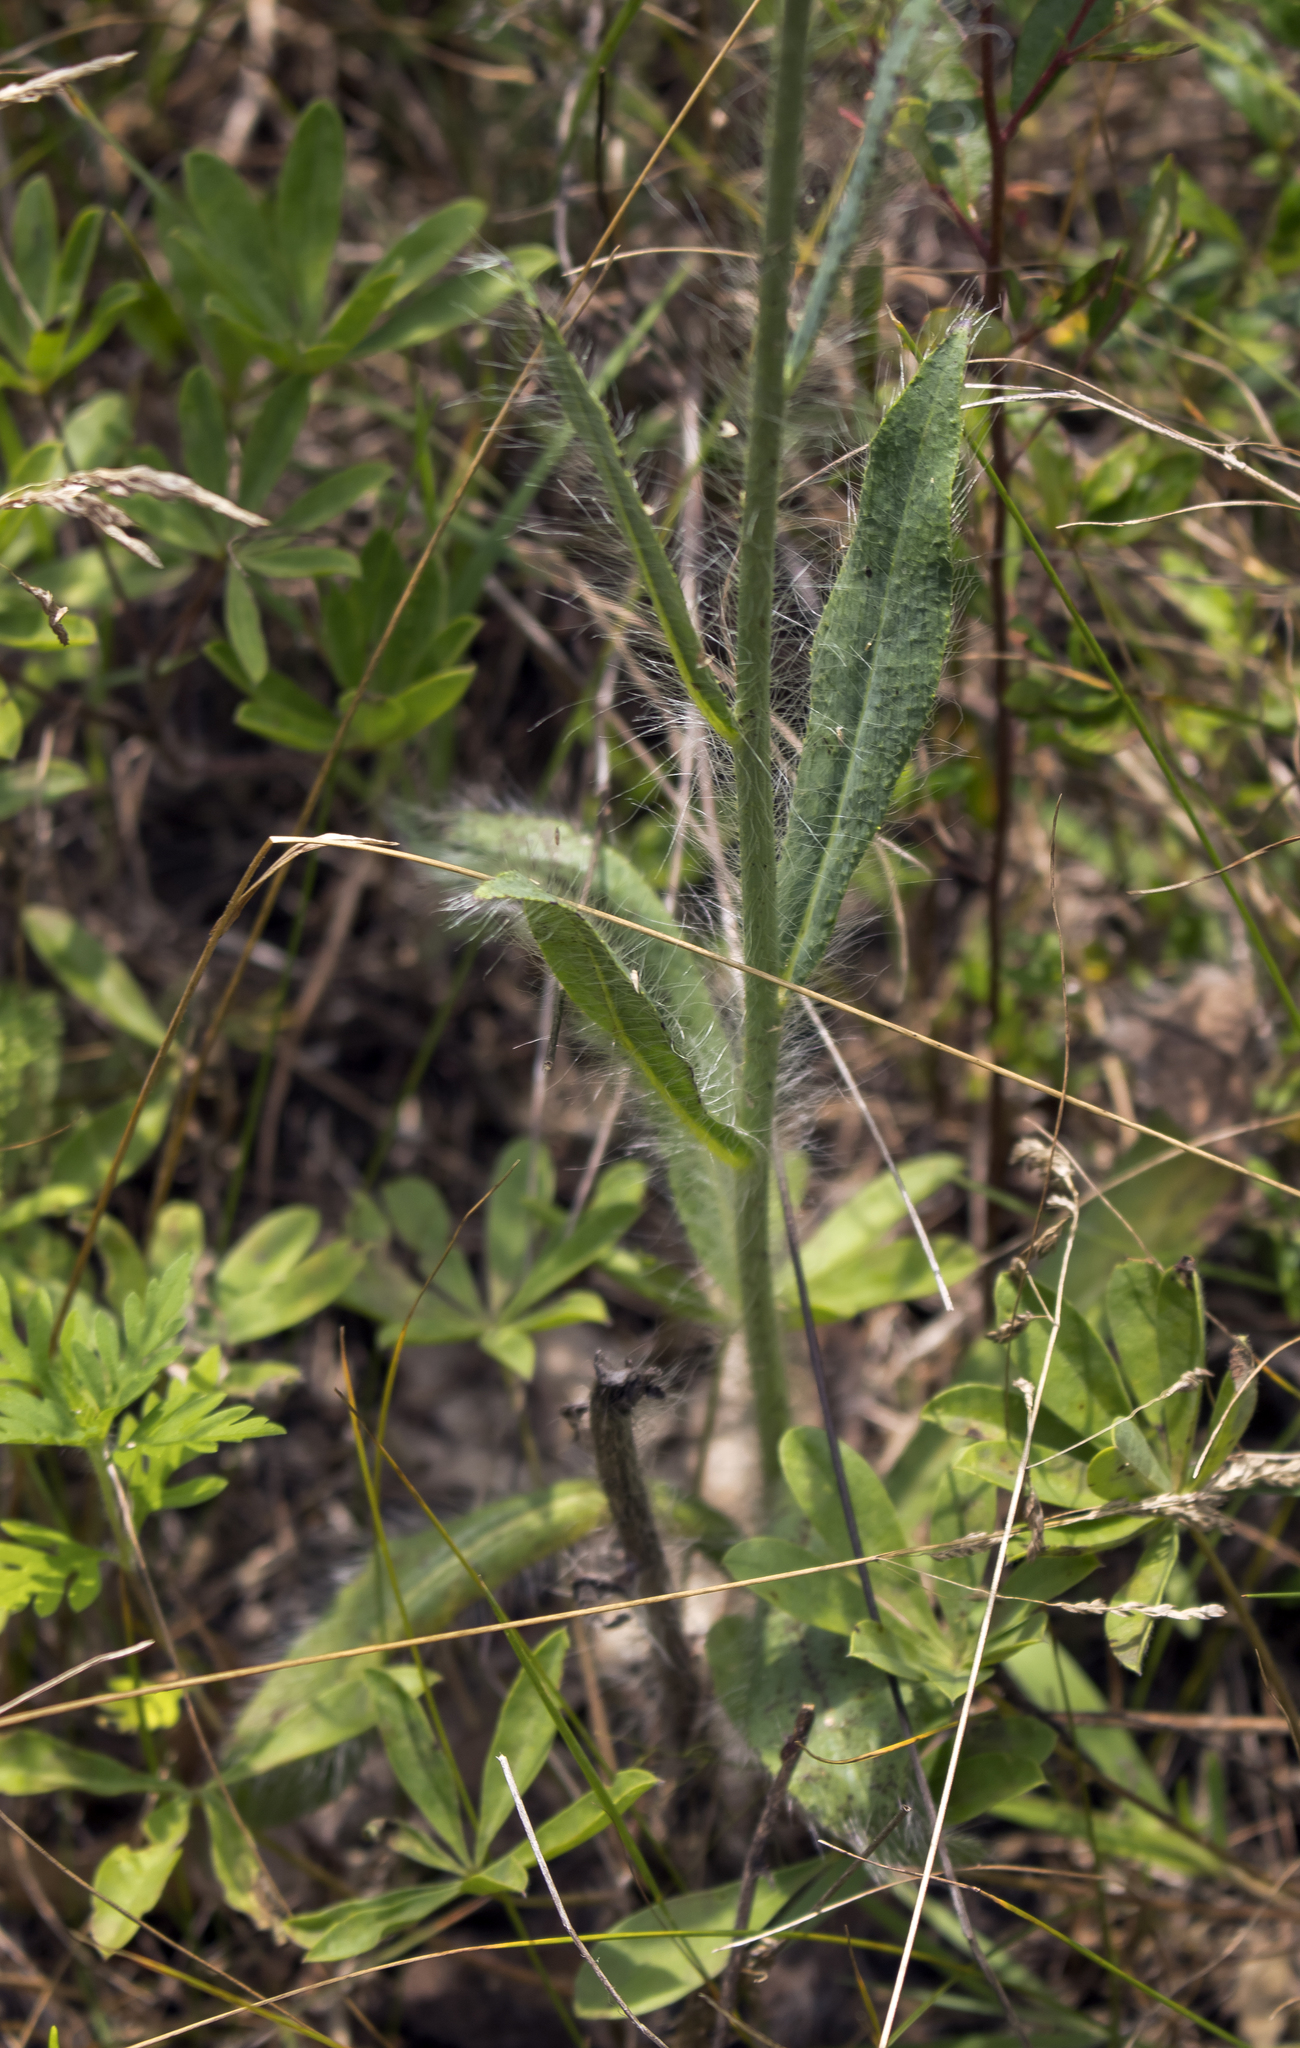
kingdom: Plantae
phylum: Tracheophyta
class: Magnoliopsida
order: Asterales
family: Asteraceae
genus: Hieracium
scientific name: Hieracium longipilum
